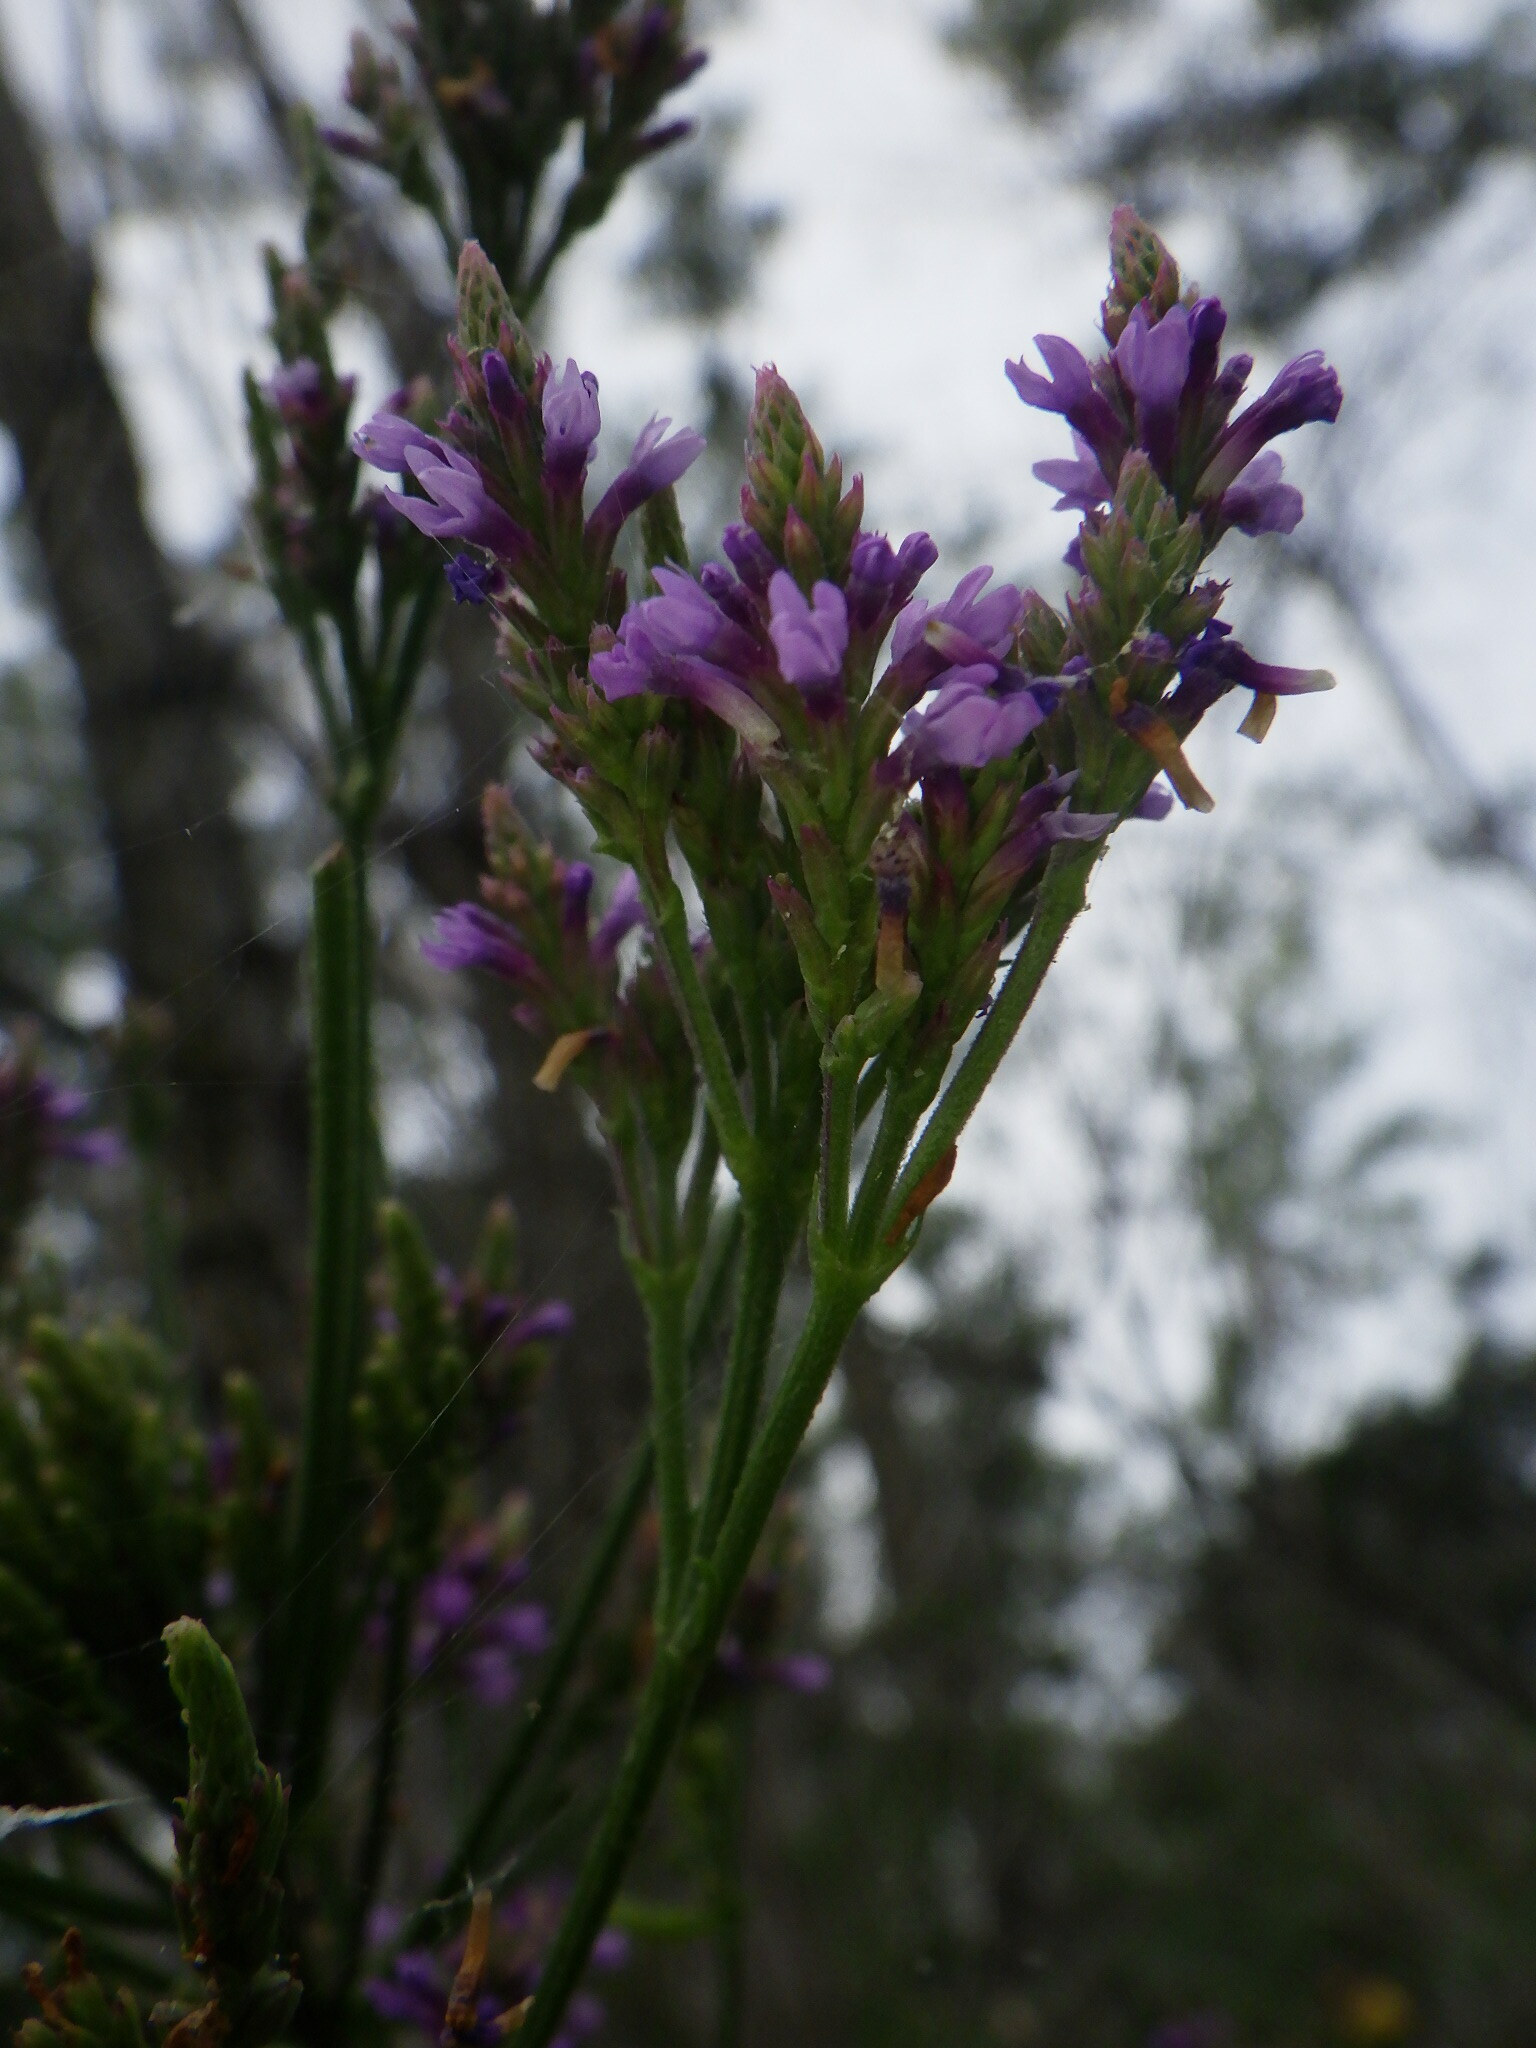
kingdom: Plantae
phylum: Tracheophyta
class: Magnoliopsida
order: Lamiales
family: Verbenaceae
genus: Verbena
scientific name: Verbena hastata
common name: American blue vervain
